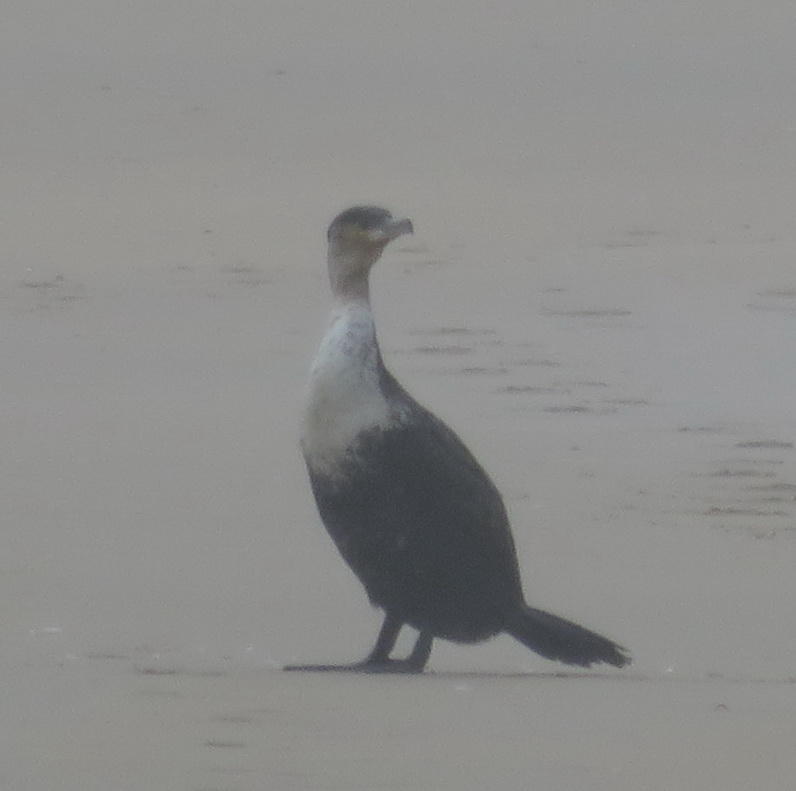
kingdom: Animalia
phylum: Chordata
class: Aves
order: Suliformes
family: Phalacrocoracidae
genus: Phalacrocorax
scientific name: Phalacrocorax carbo
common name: Great cormorant
